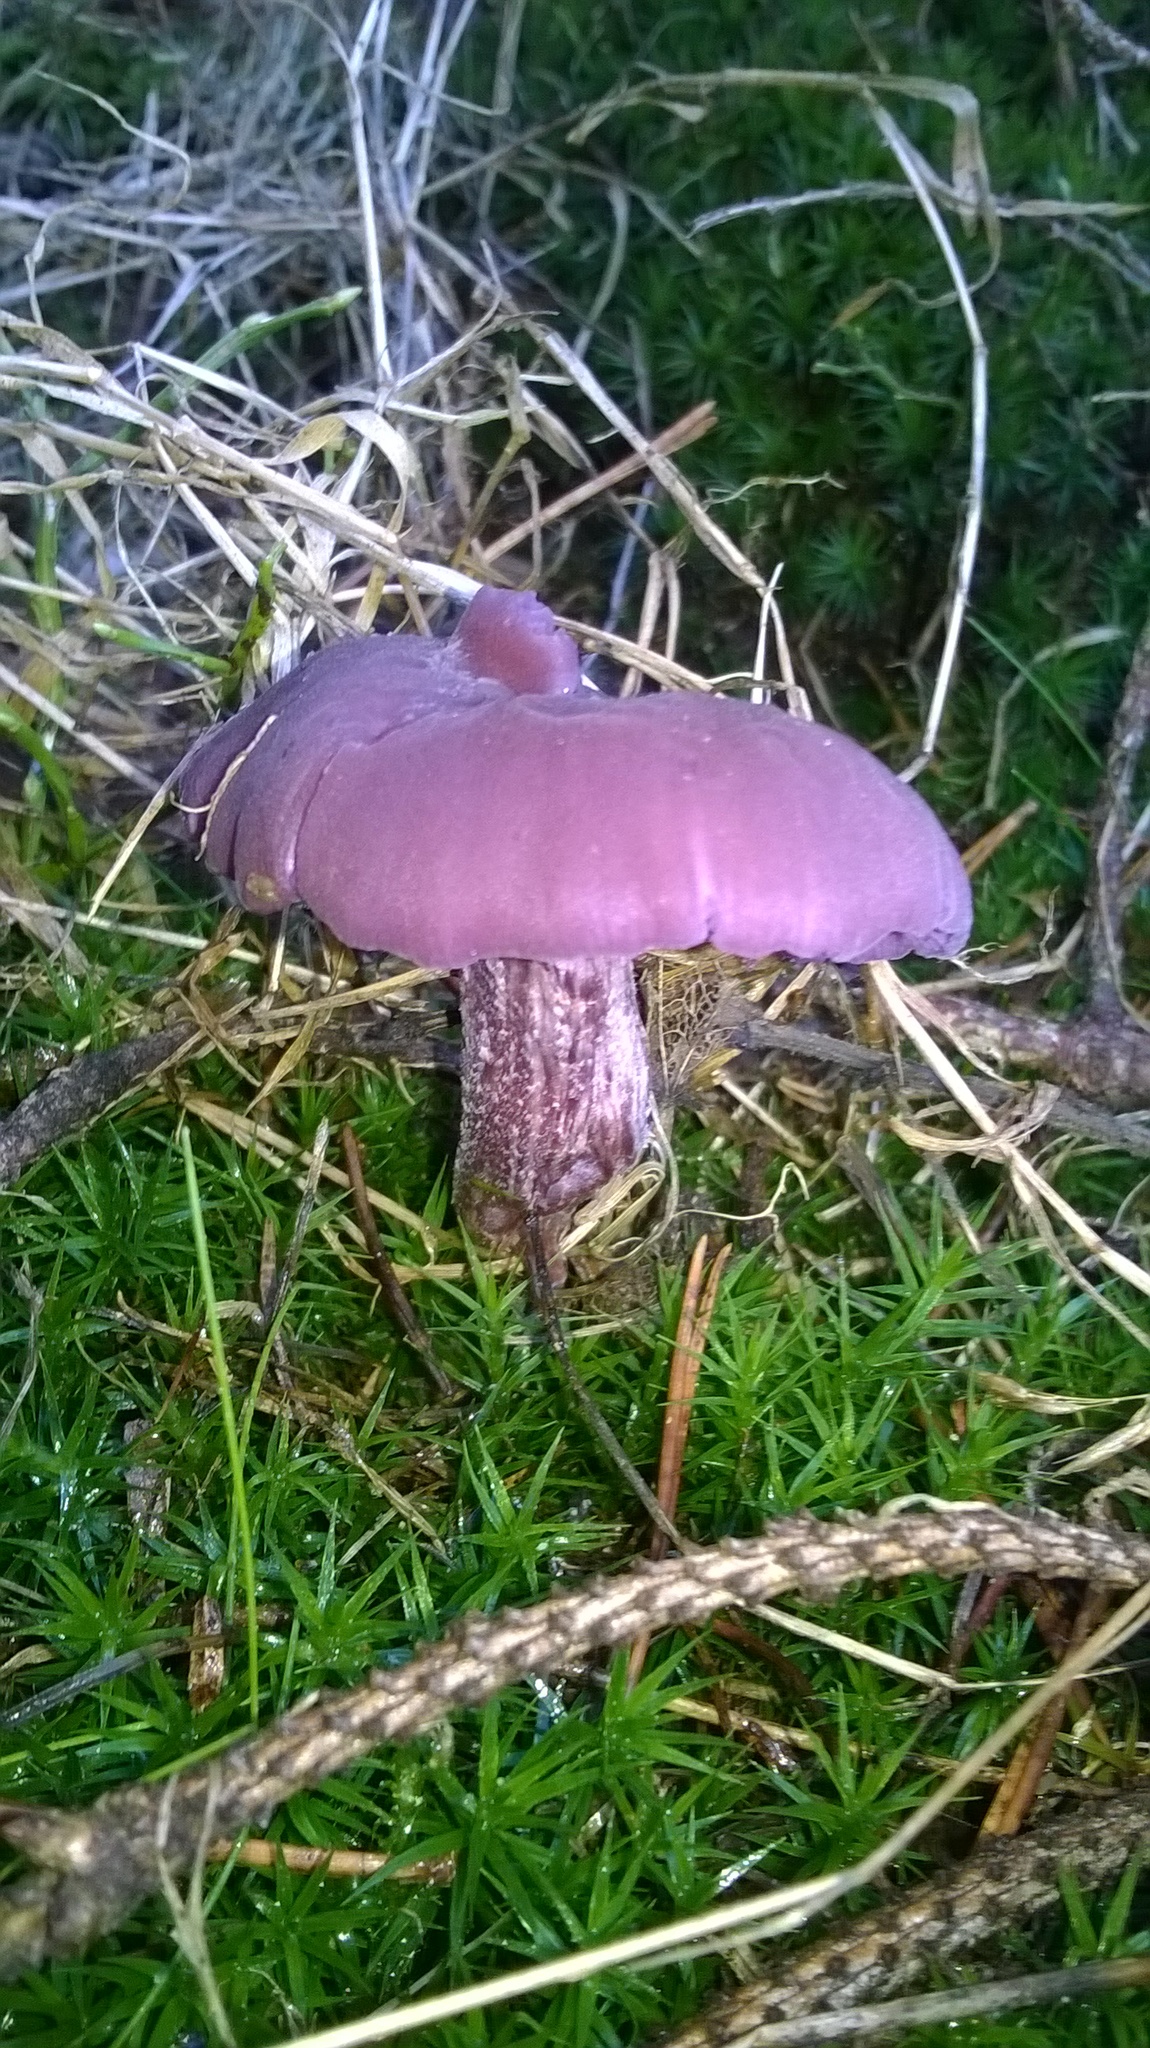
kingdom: Fungi
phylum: Basidiomycota
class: Agaricomycetes
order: Agaricales
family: Tricholomataceae
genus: Collybia
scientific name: Collybia
